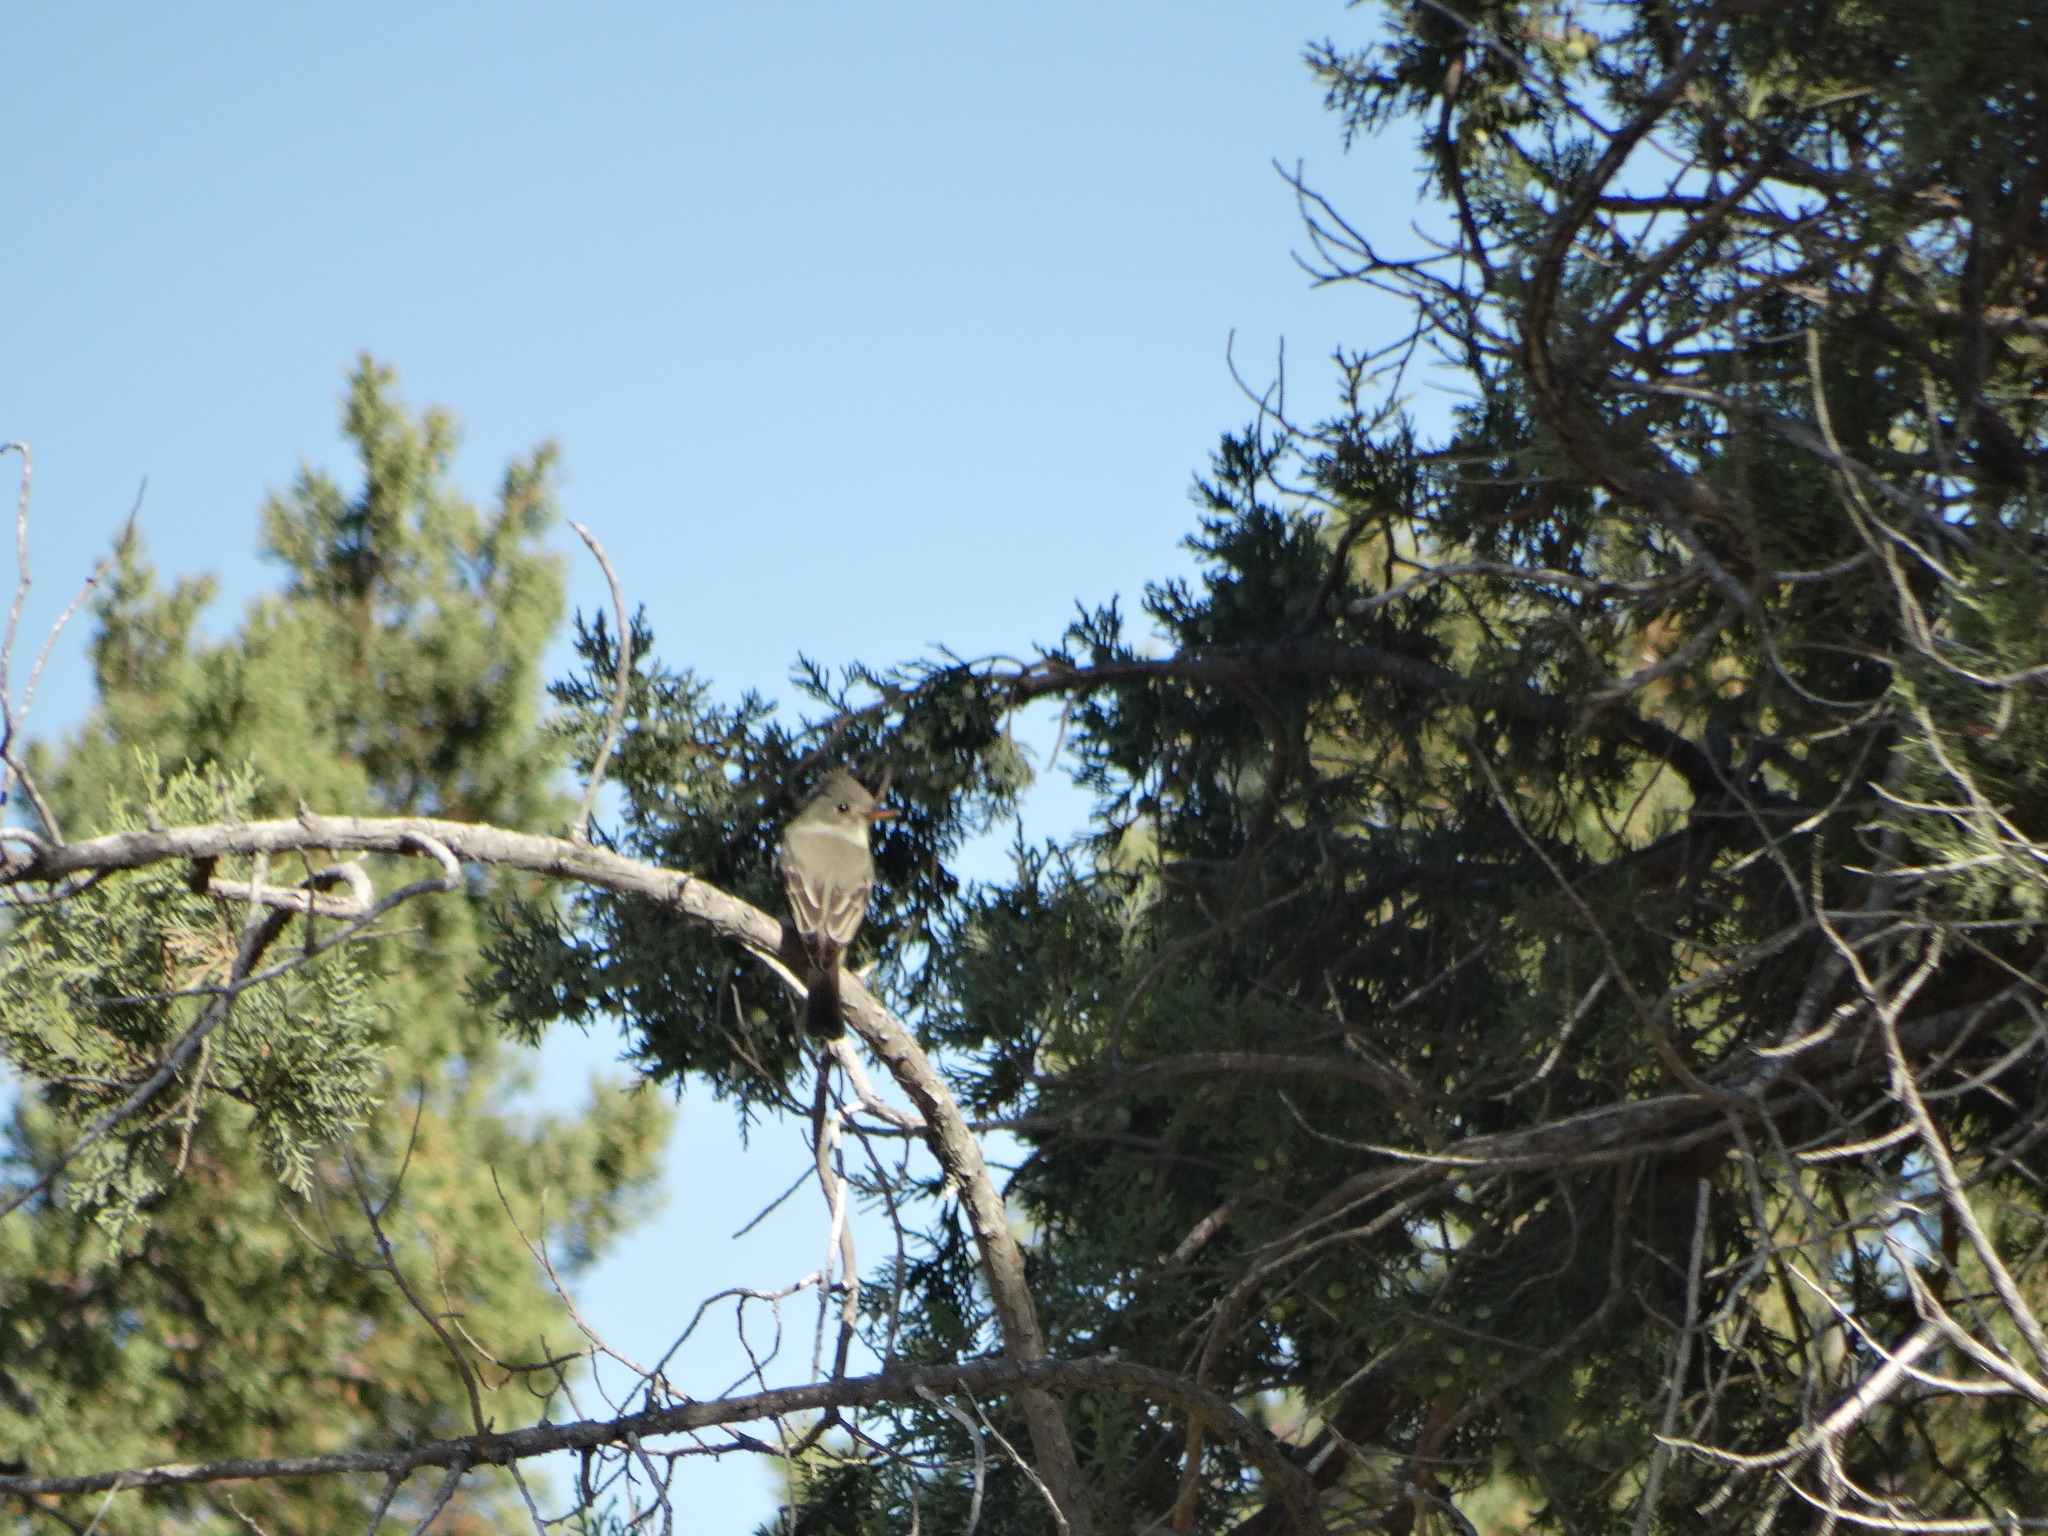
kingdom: Animalia
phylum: Chordata
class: Aves
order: Passeriformes
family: Tyrannidae
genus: Contopus
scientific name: Contopus pertinax
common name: Greater pewee
